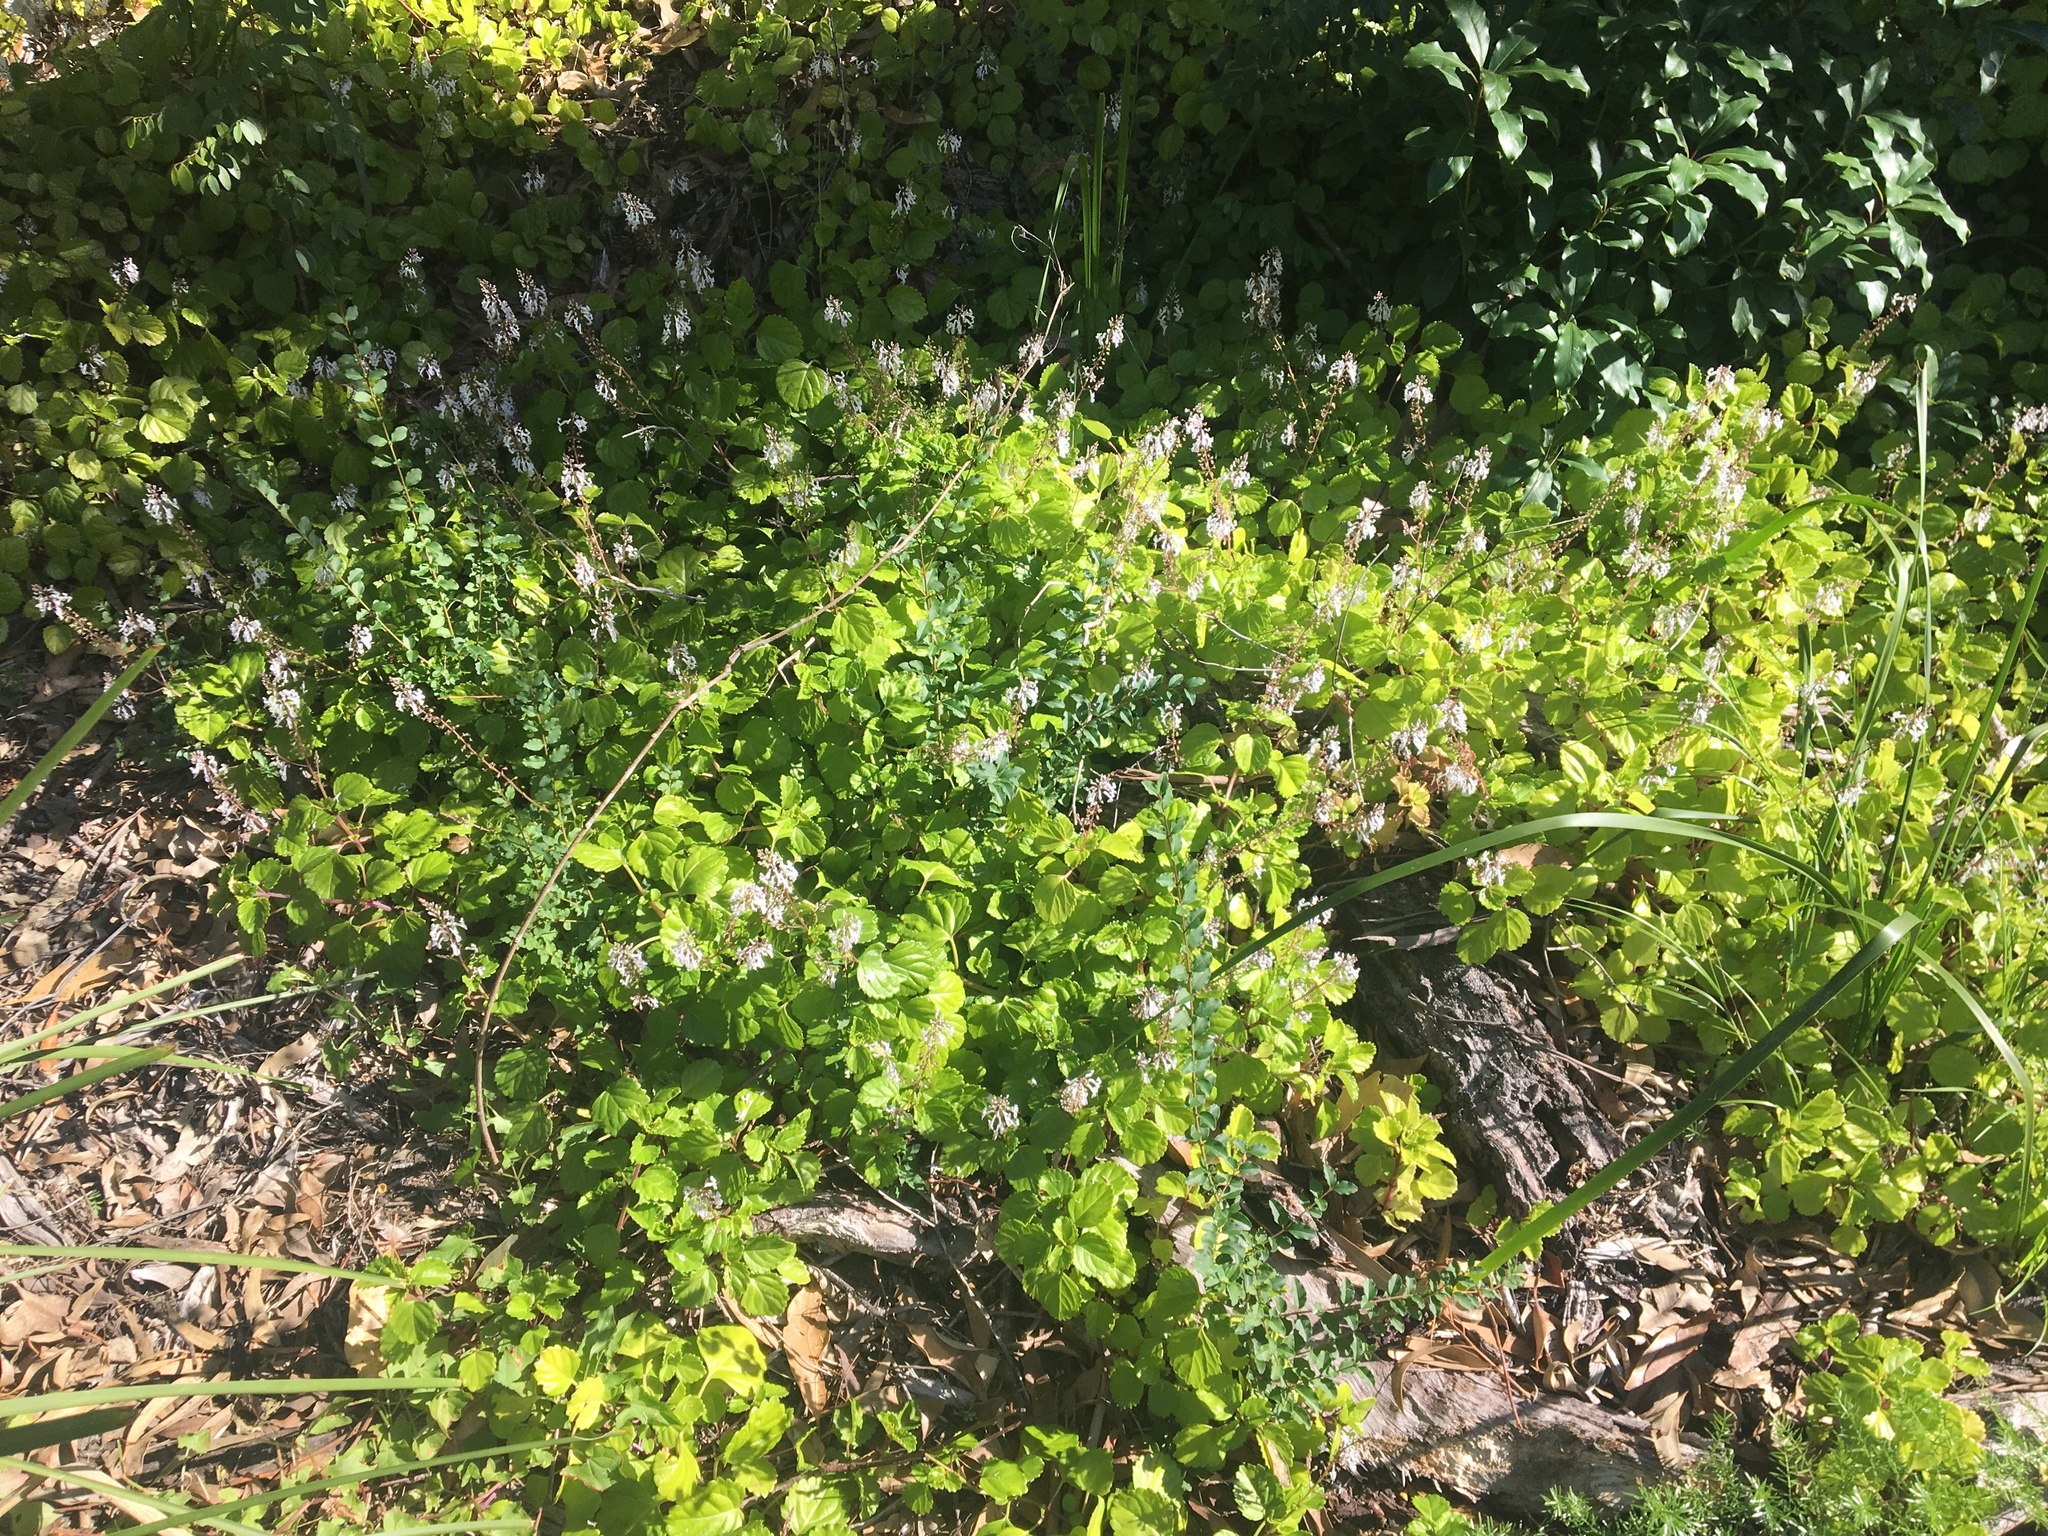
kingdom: Plantae
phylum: Tracheophyta
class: Magnoliopsida
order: Lamiales
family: Lamiaceae
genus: Plectranthus
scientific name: Plectranthus verticillatus
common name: Whorled plectranthus
